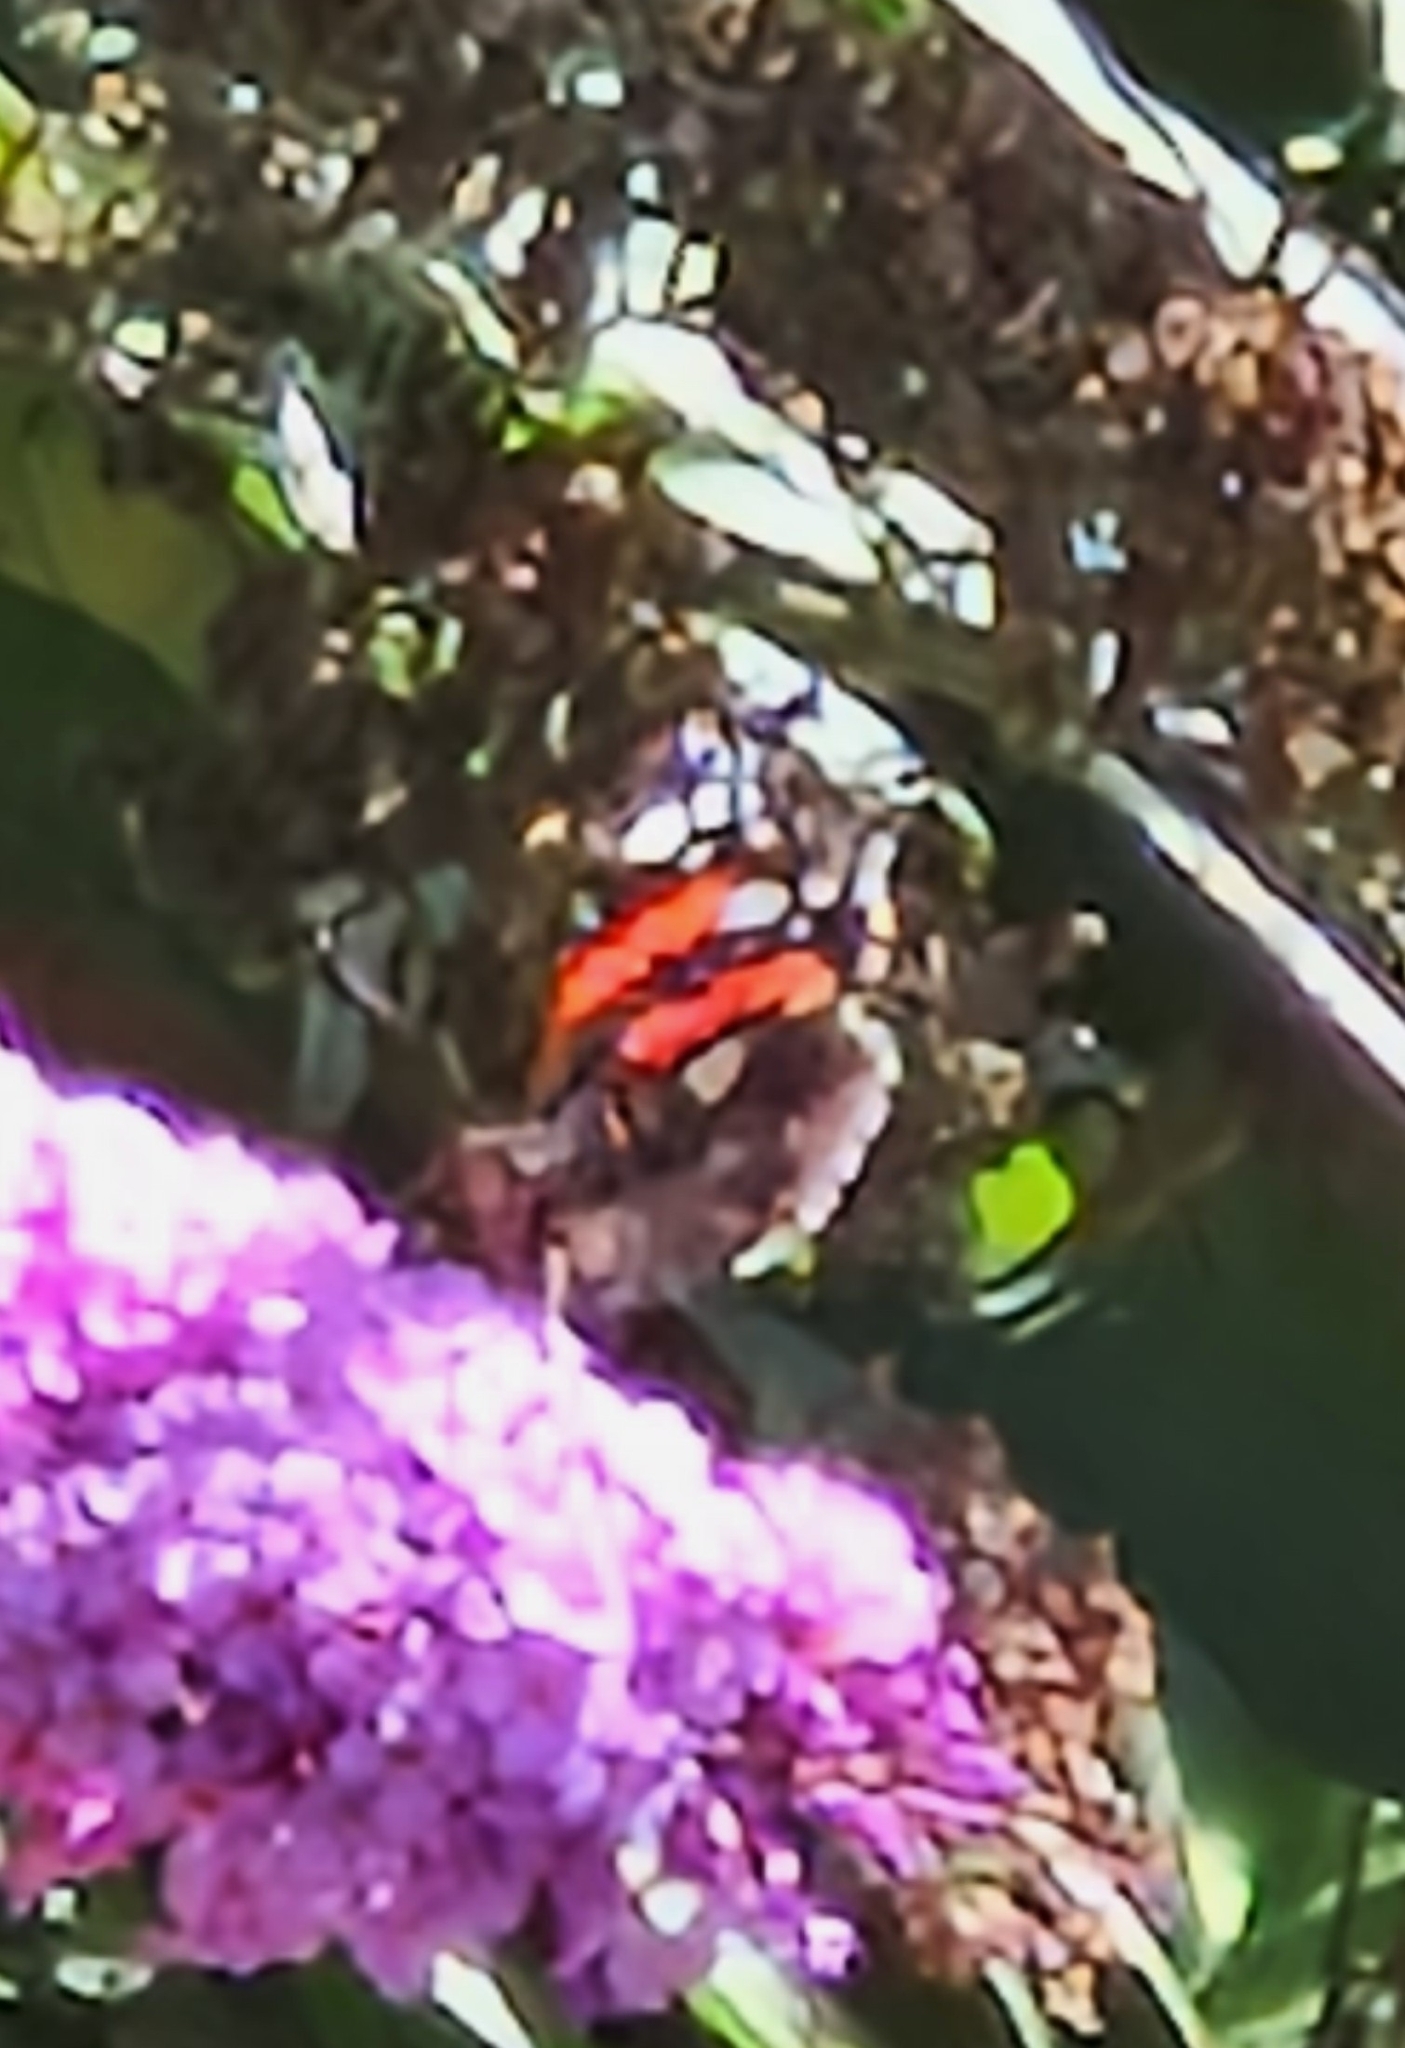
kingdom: Animalia
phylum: Arthropoda
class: Insecta
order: Lepidoptera
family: Nymphalidae
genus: Vanessa
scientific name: Vanessa atalanta
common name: Red admiral
